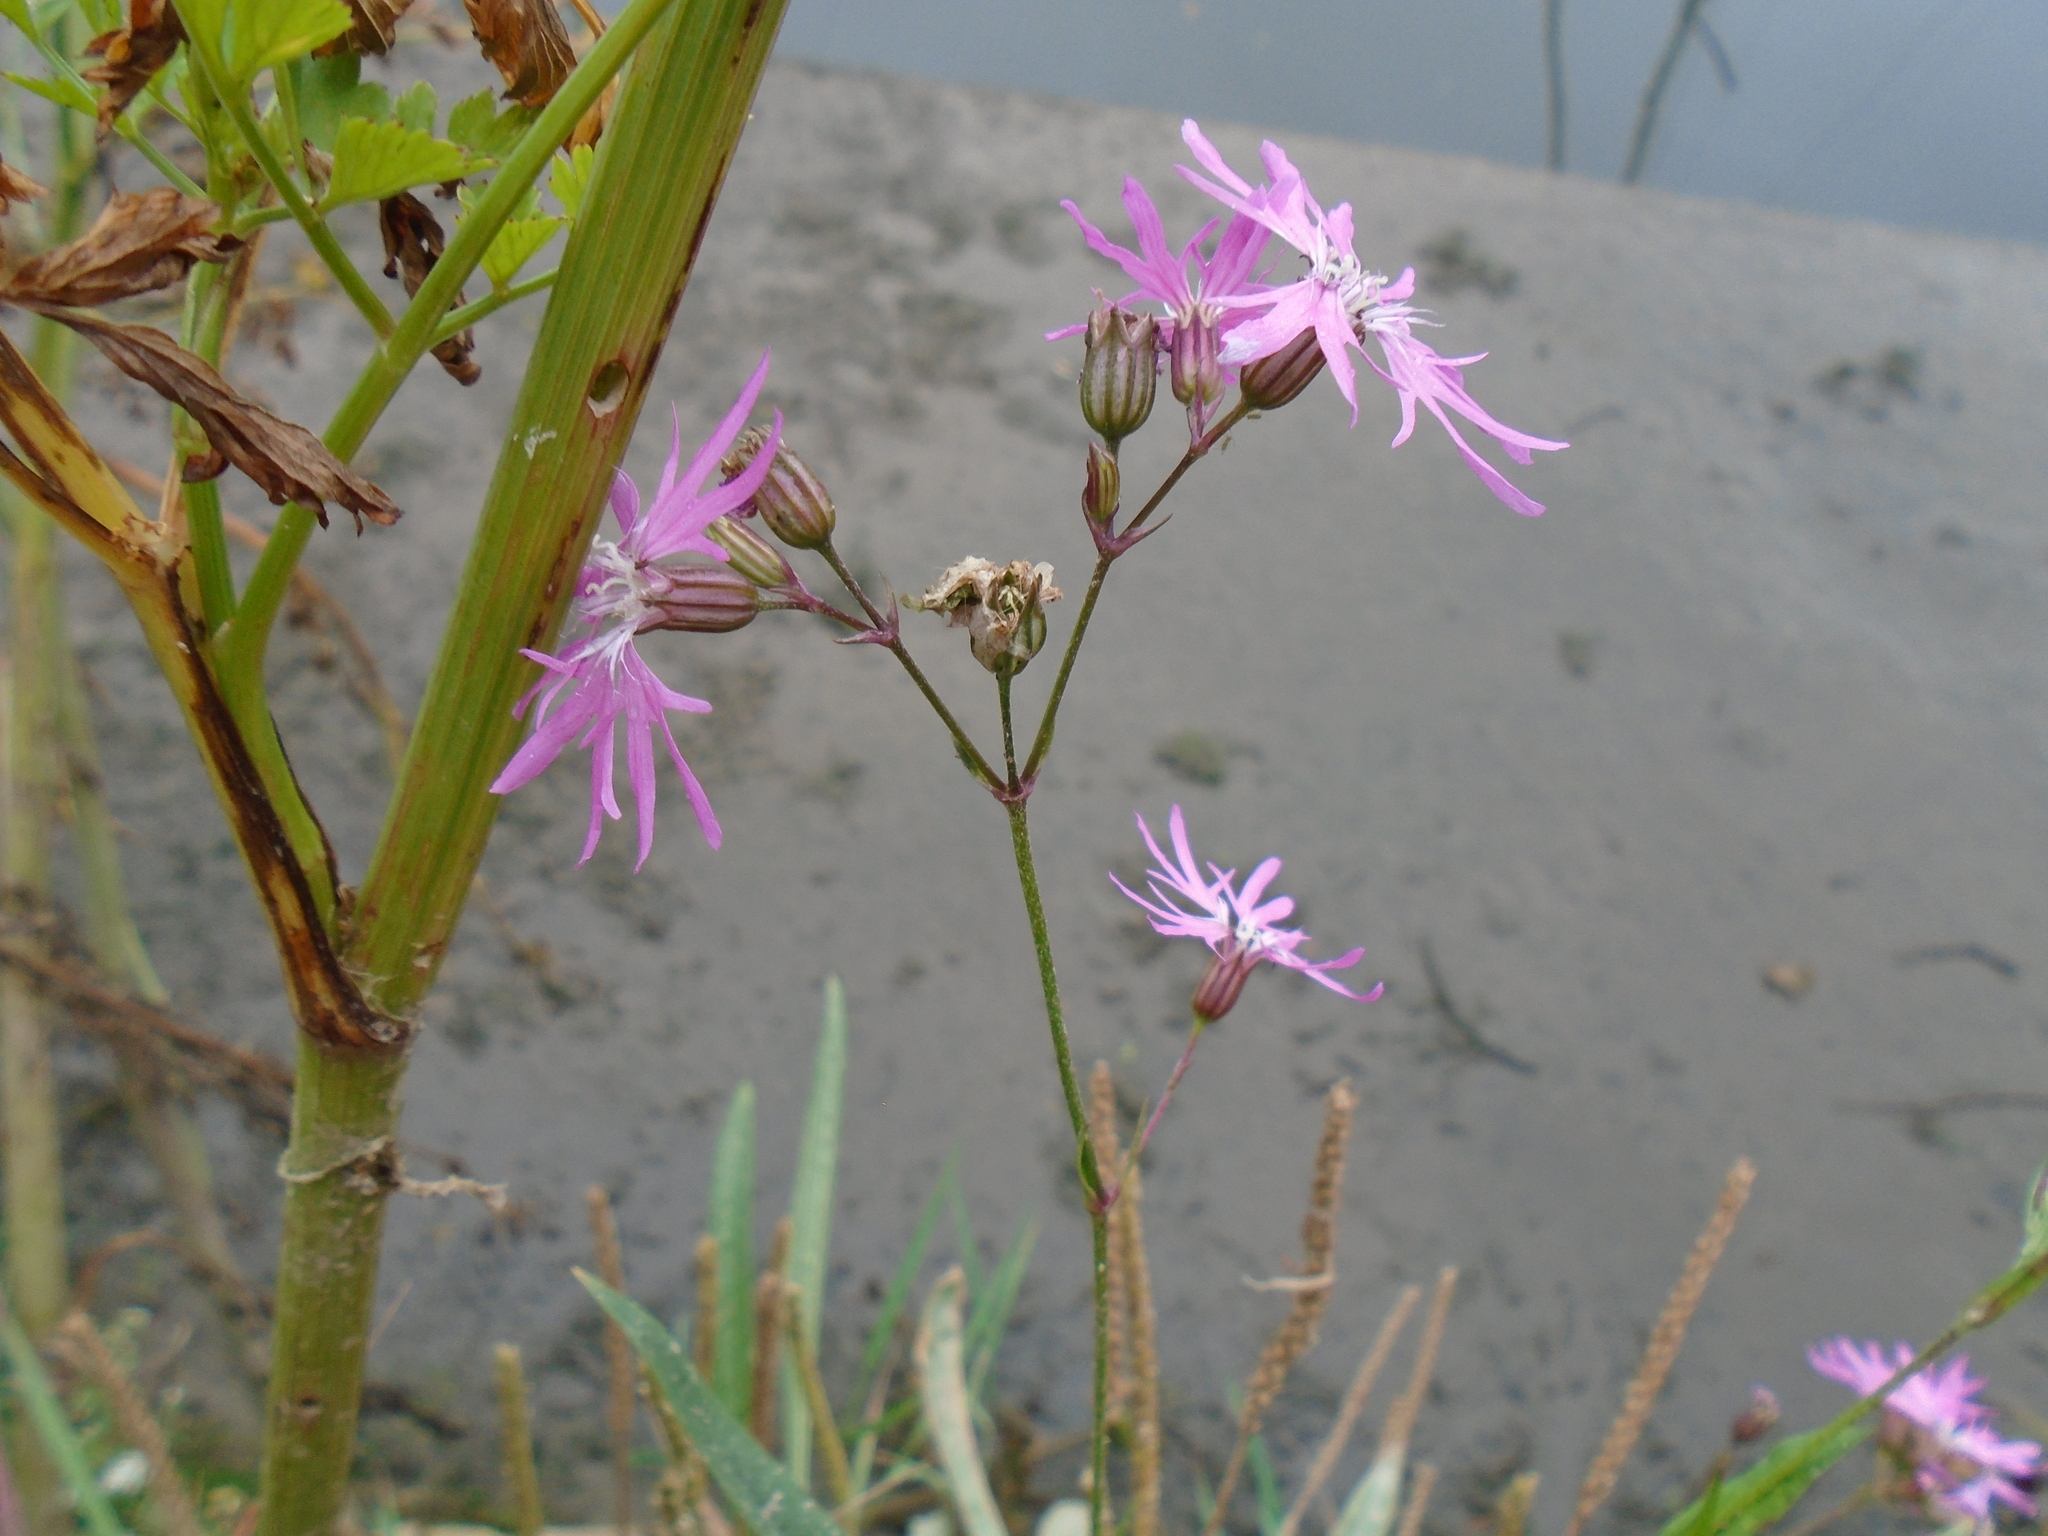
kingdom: Plantae
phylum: Tracheophyta
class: Magnoliopsida
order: Caryophyllales
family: Caryophyllaceae
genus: Silene
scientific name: Silene flos-cuculi
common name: Ragged-robin
